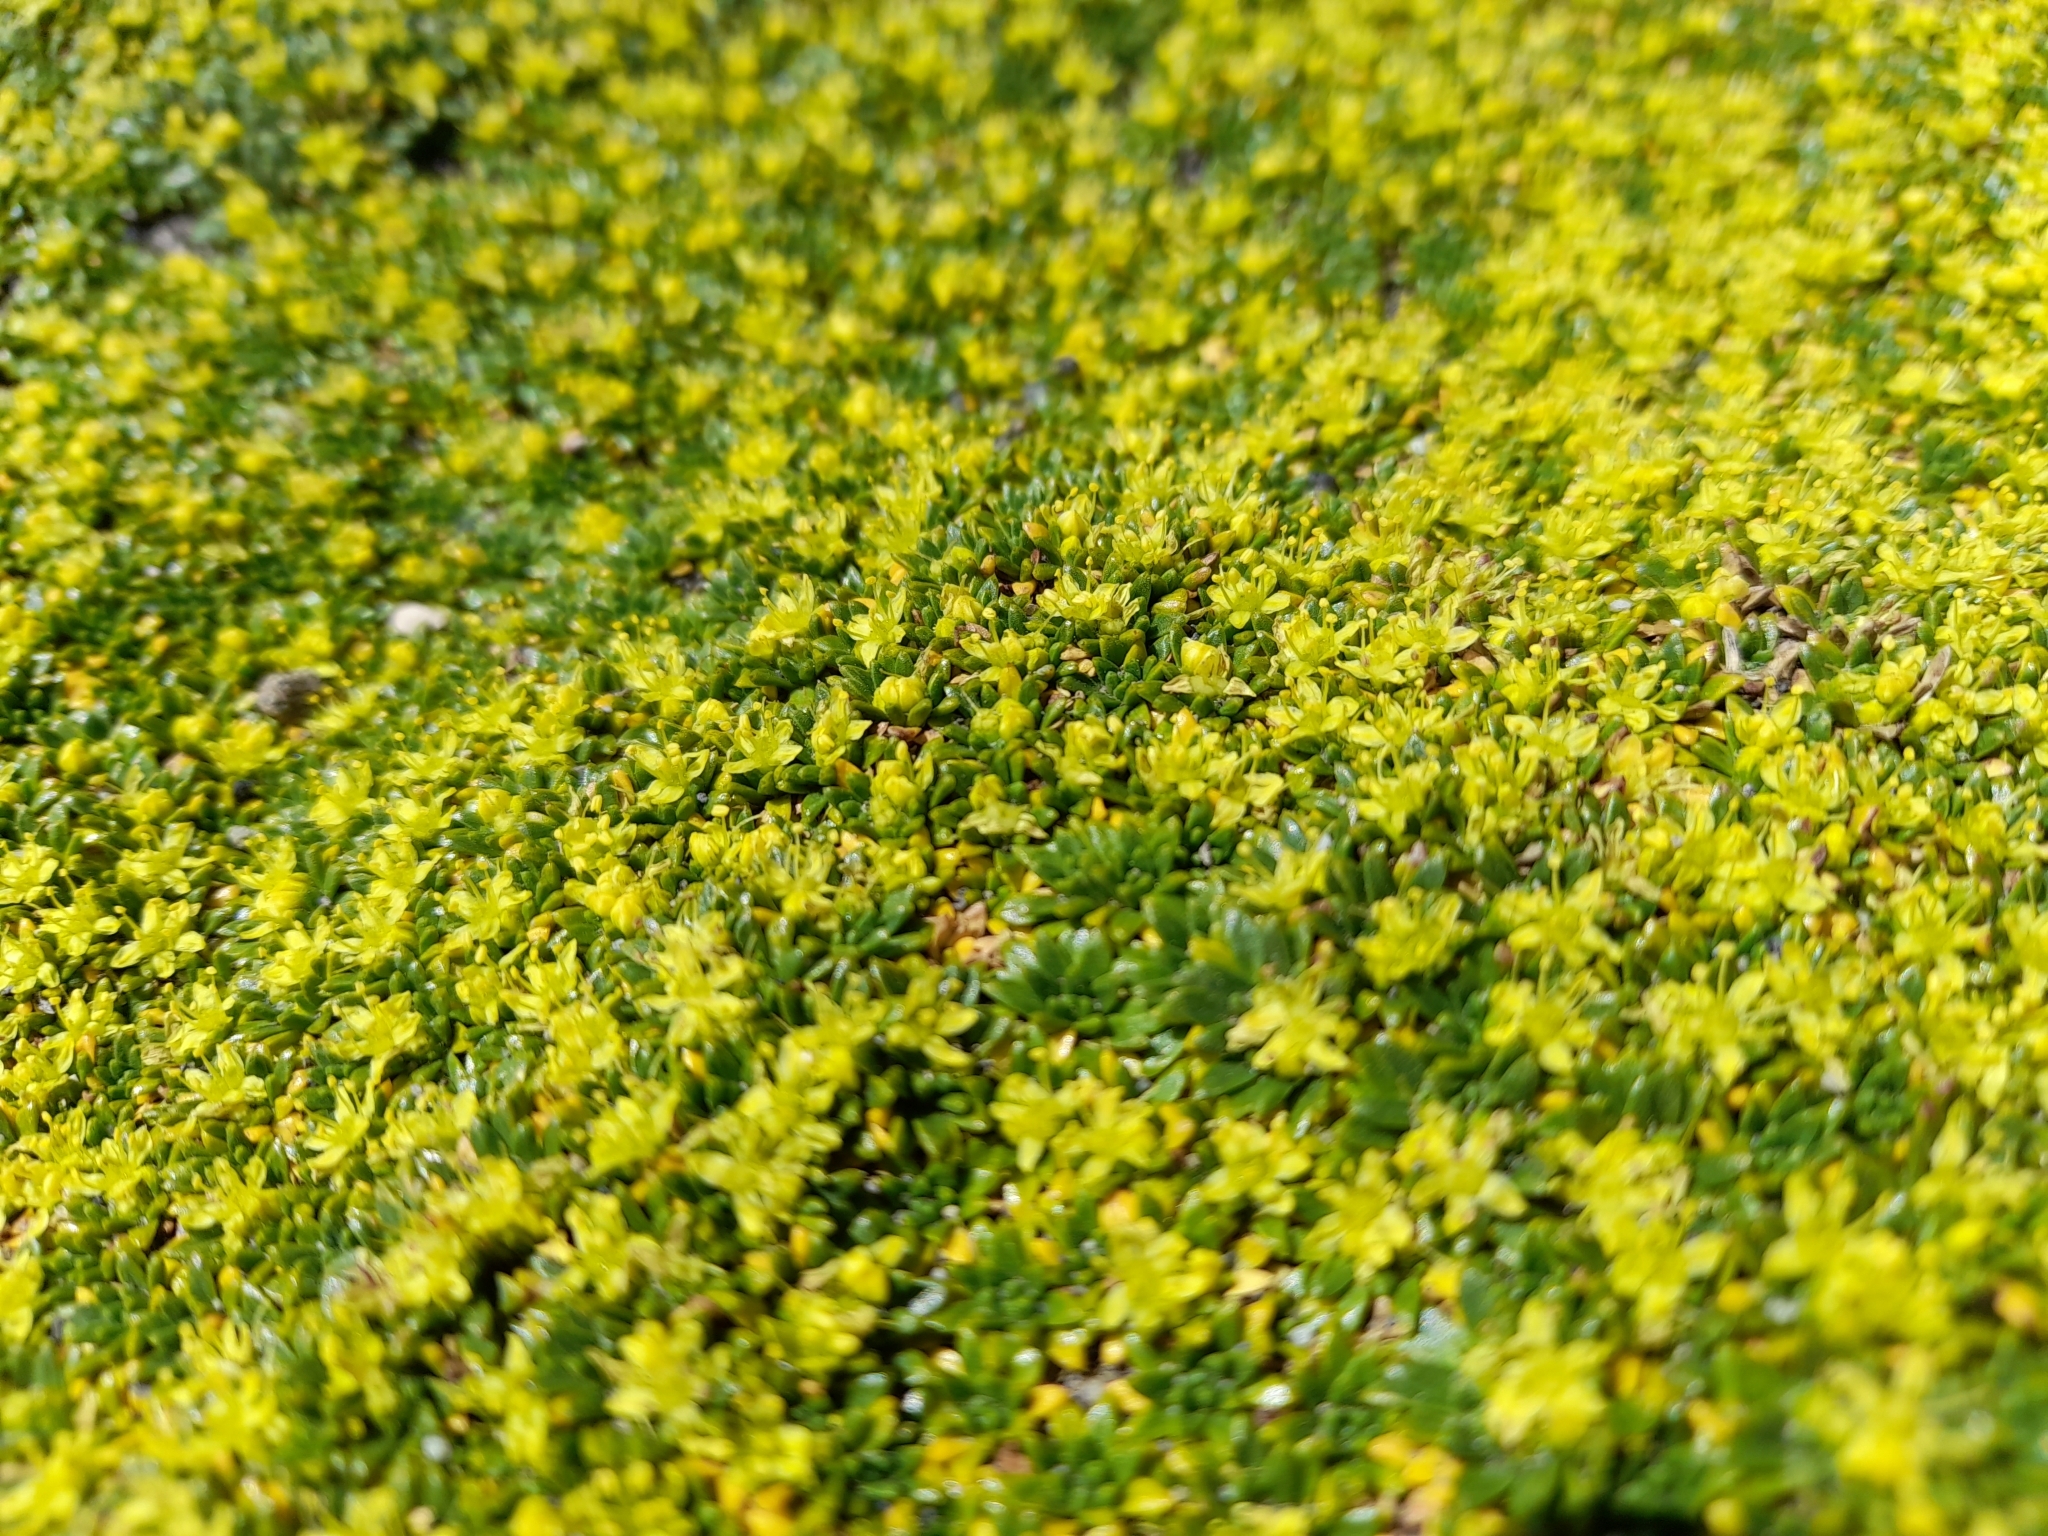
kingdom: Plantae
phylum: Tracheophyta
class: Magnoliopsida
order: Apiales
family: Apiaceae
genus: Azorella
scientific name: Azorella monantha
